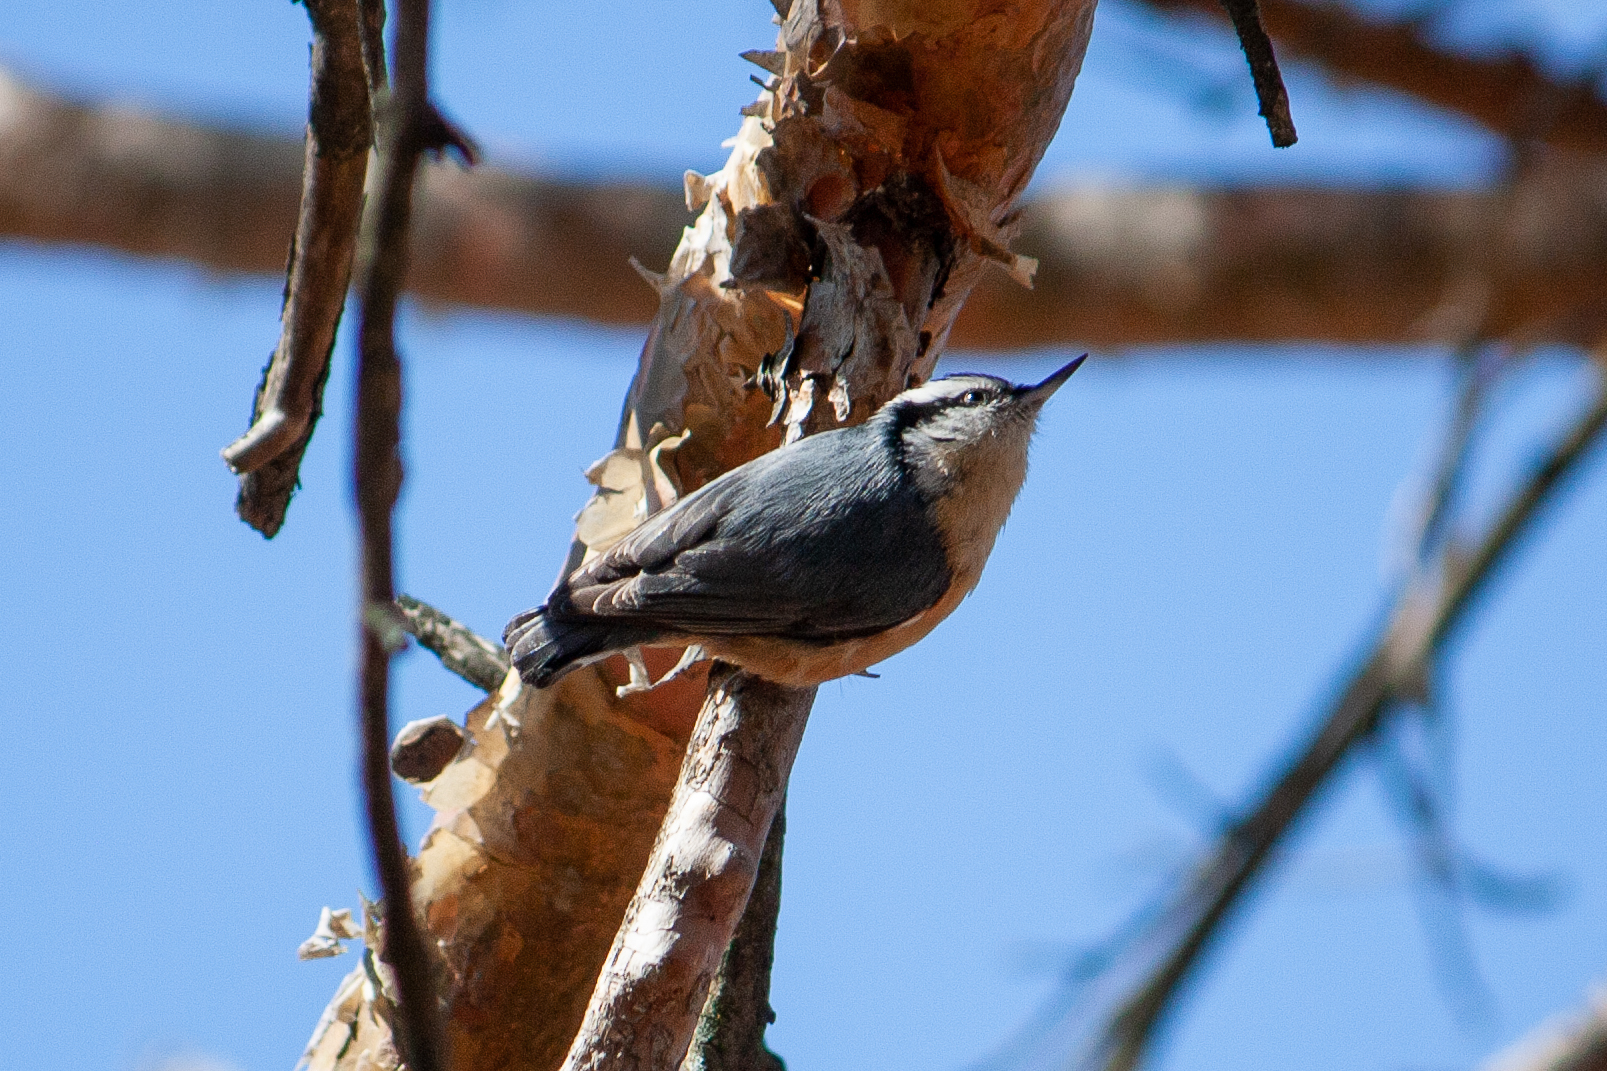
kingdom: Animalia
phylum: Chordata
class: Aves
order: Passeriformes
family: Sittidae
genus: Sitta
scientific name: Sitta canadensis
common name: Red-breasted nuthatch
